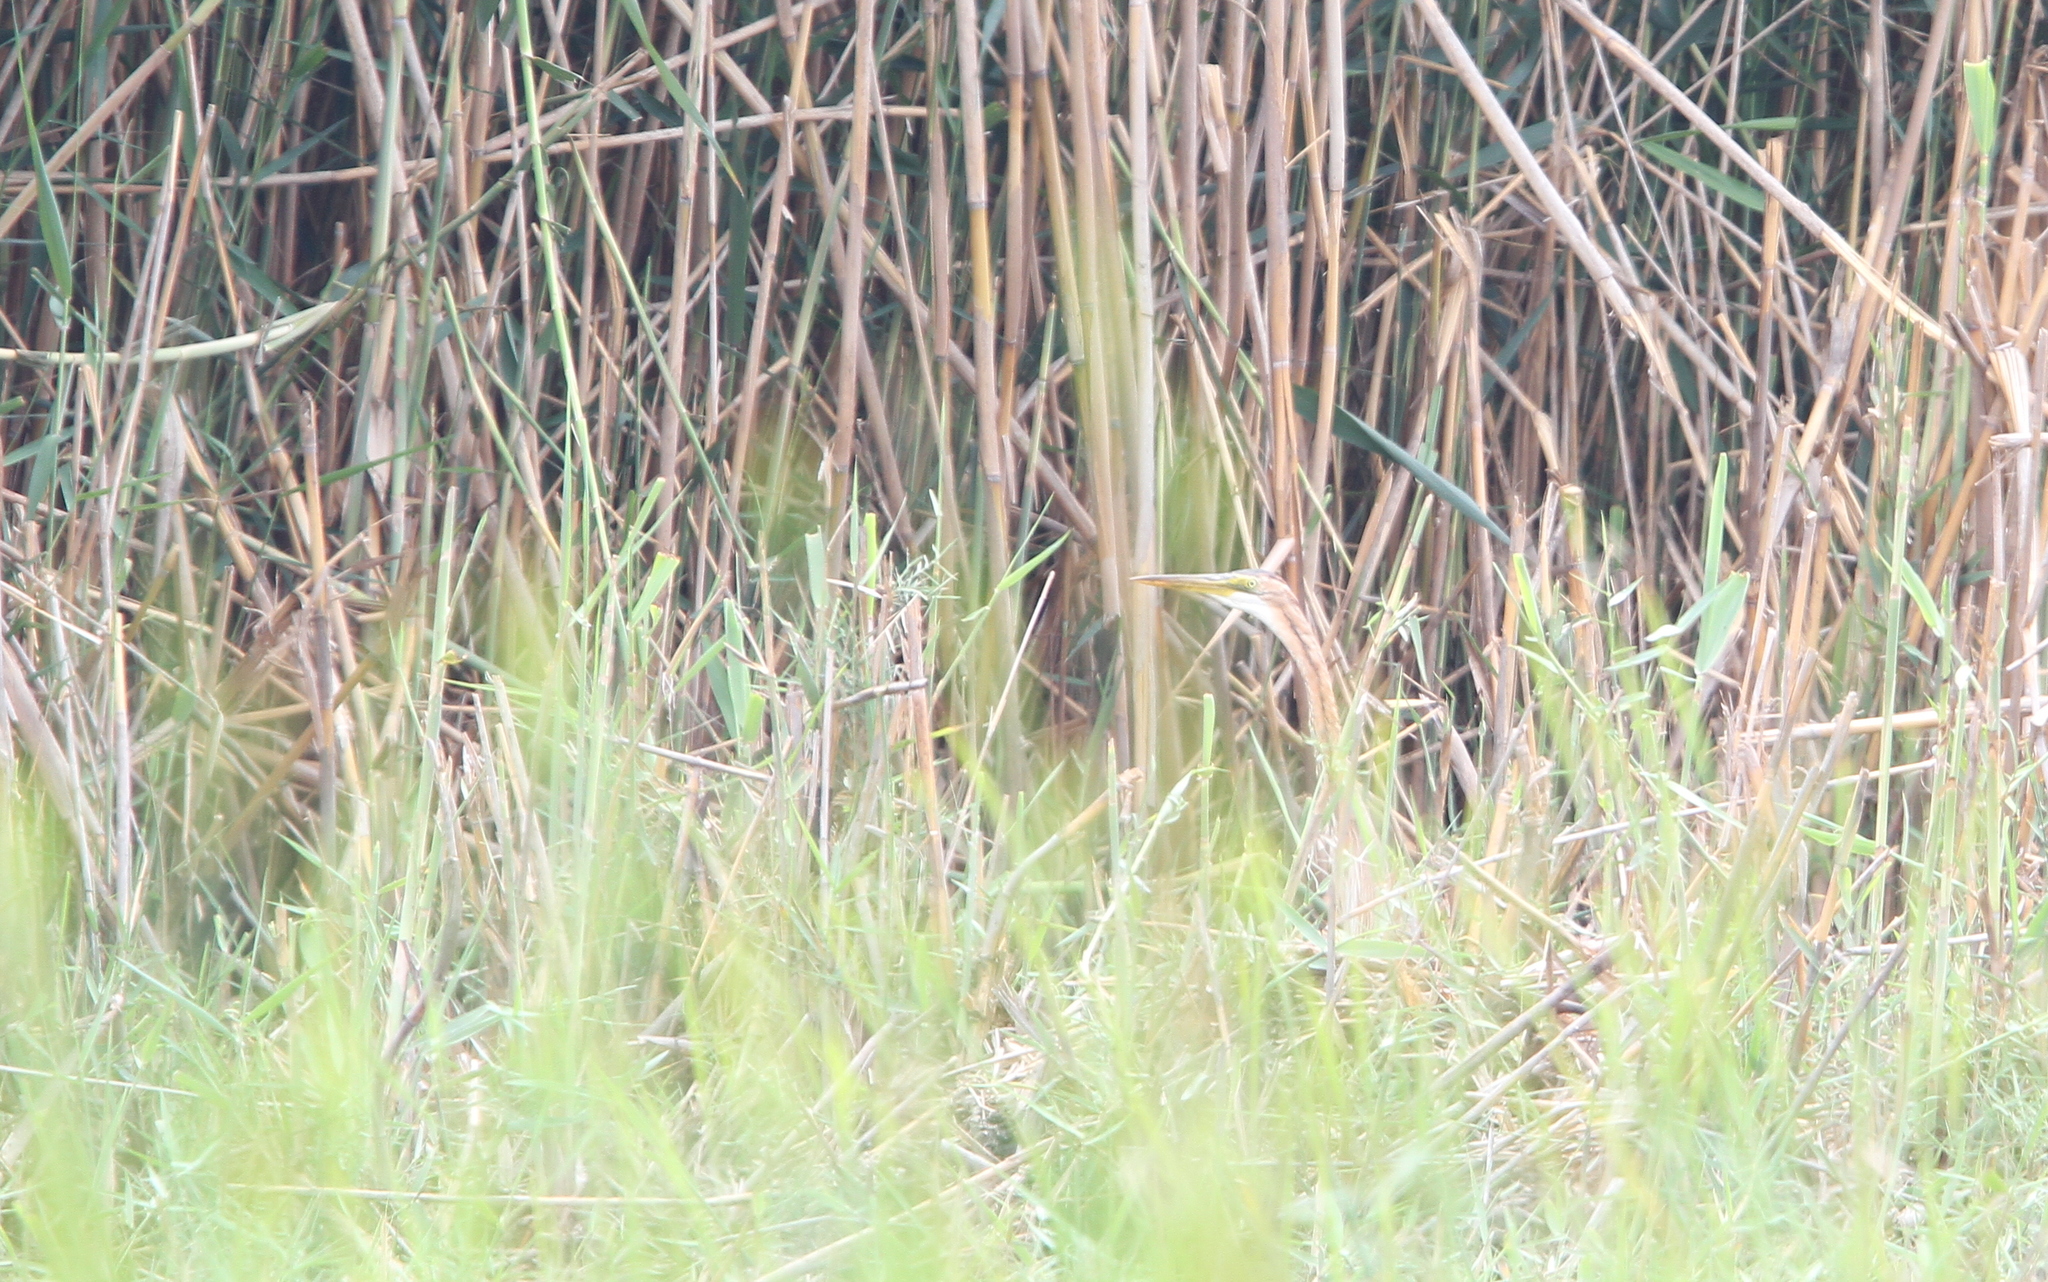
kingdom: Animalia
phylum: Chordata
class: Aves
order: Pelecaniformes
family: Ardeidae
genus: Ardea
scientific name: Ardea purpurea
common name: Purple heron
